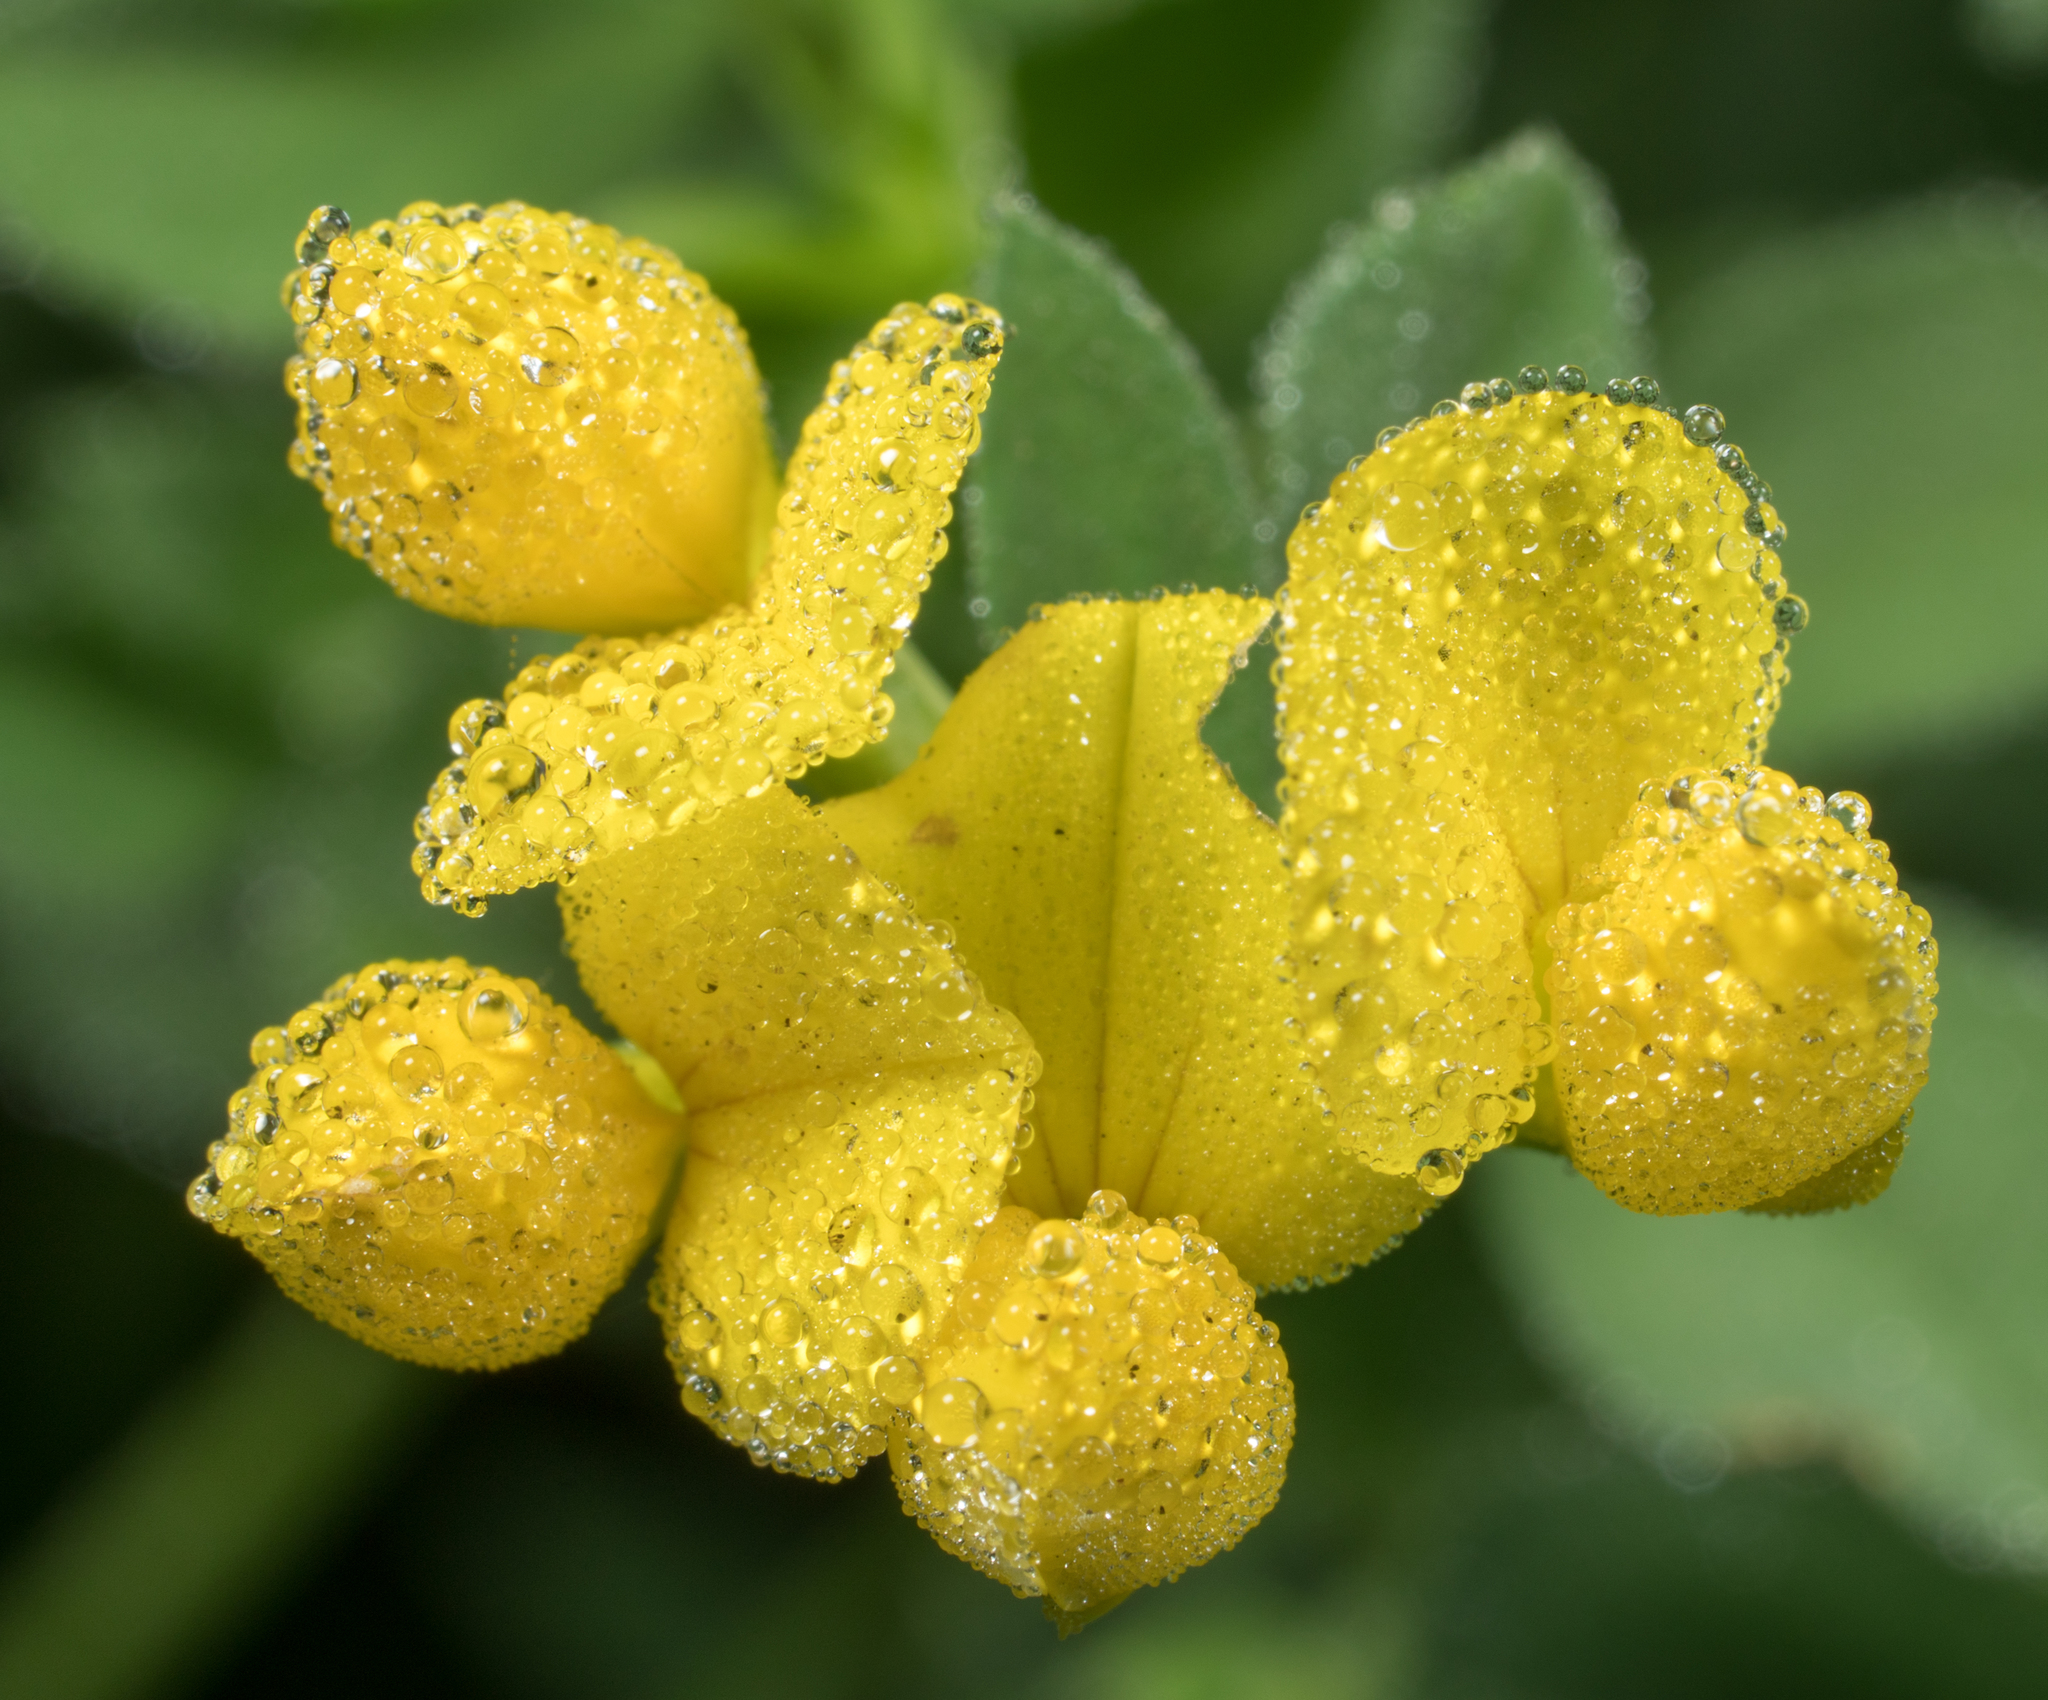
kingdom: Plantae
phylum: Tracheophyta
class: Magnoliopsida
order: Fabales
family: Fabaceae
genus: Lotus
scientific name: Lotus corniculatus
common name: Common bird's-foot-trefoil
